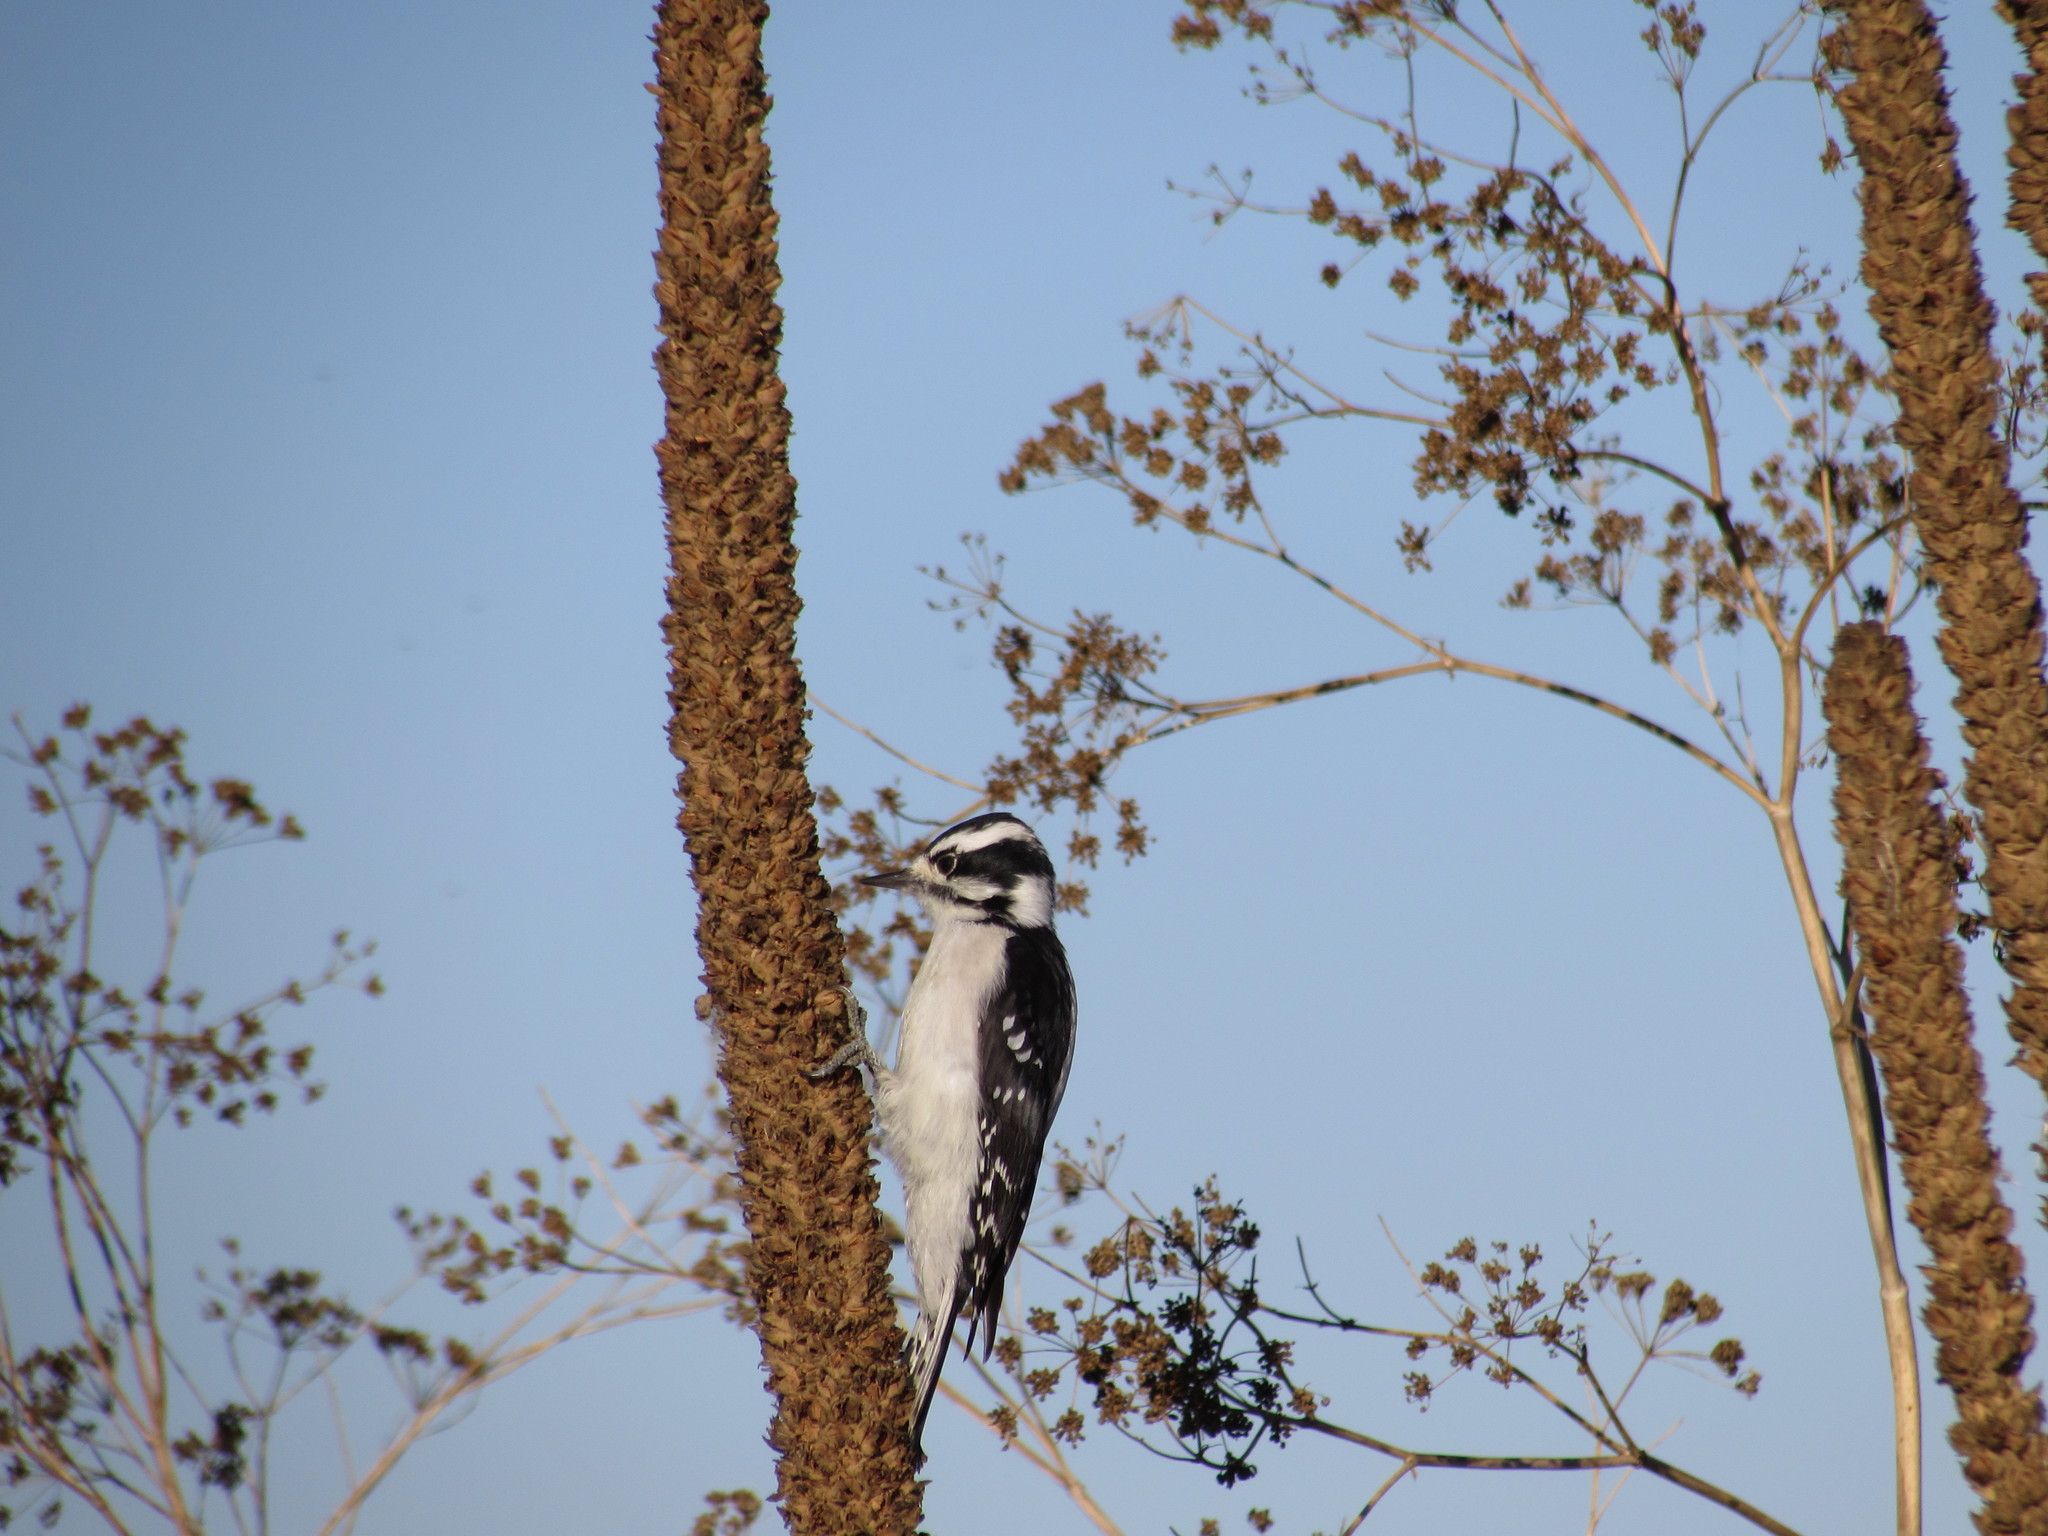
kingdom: Animalia
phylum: Chordata
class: Aves
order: Piciformes
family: Picidae
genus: Dryobates
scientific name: Dryobates pubescens
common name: Downy woodpecker
